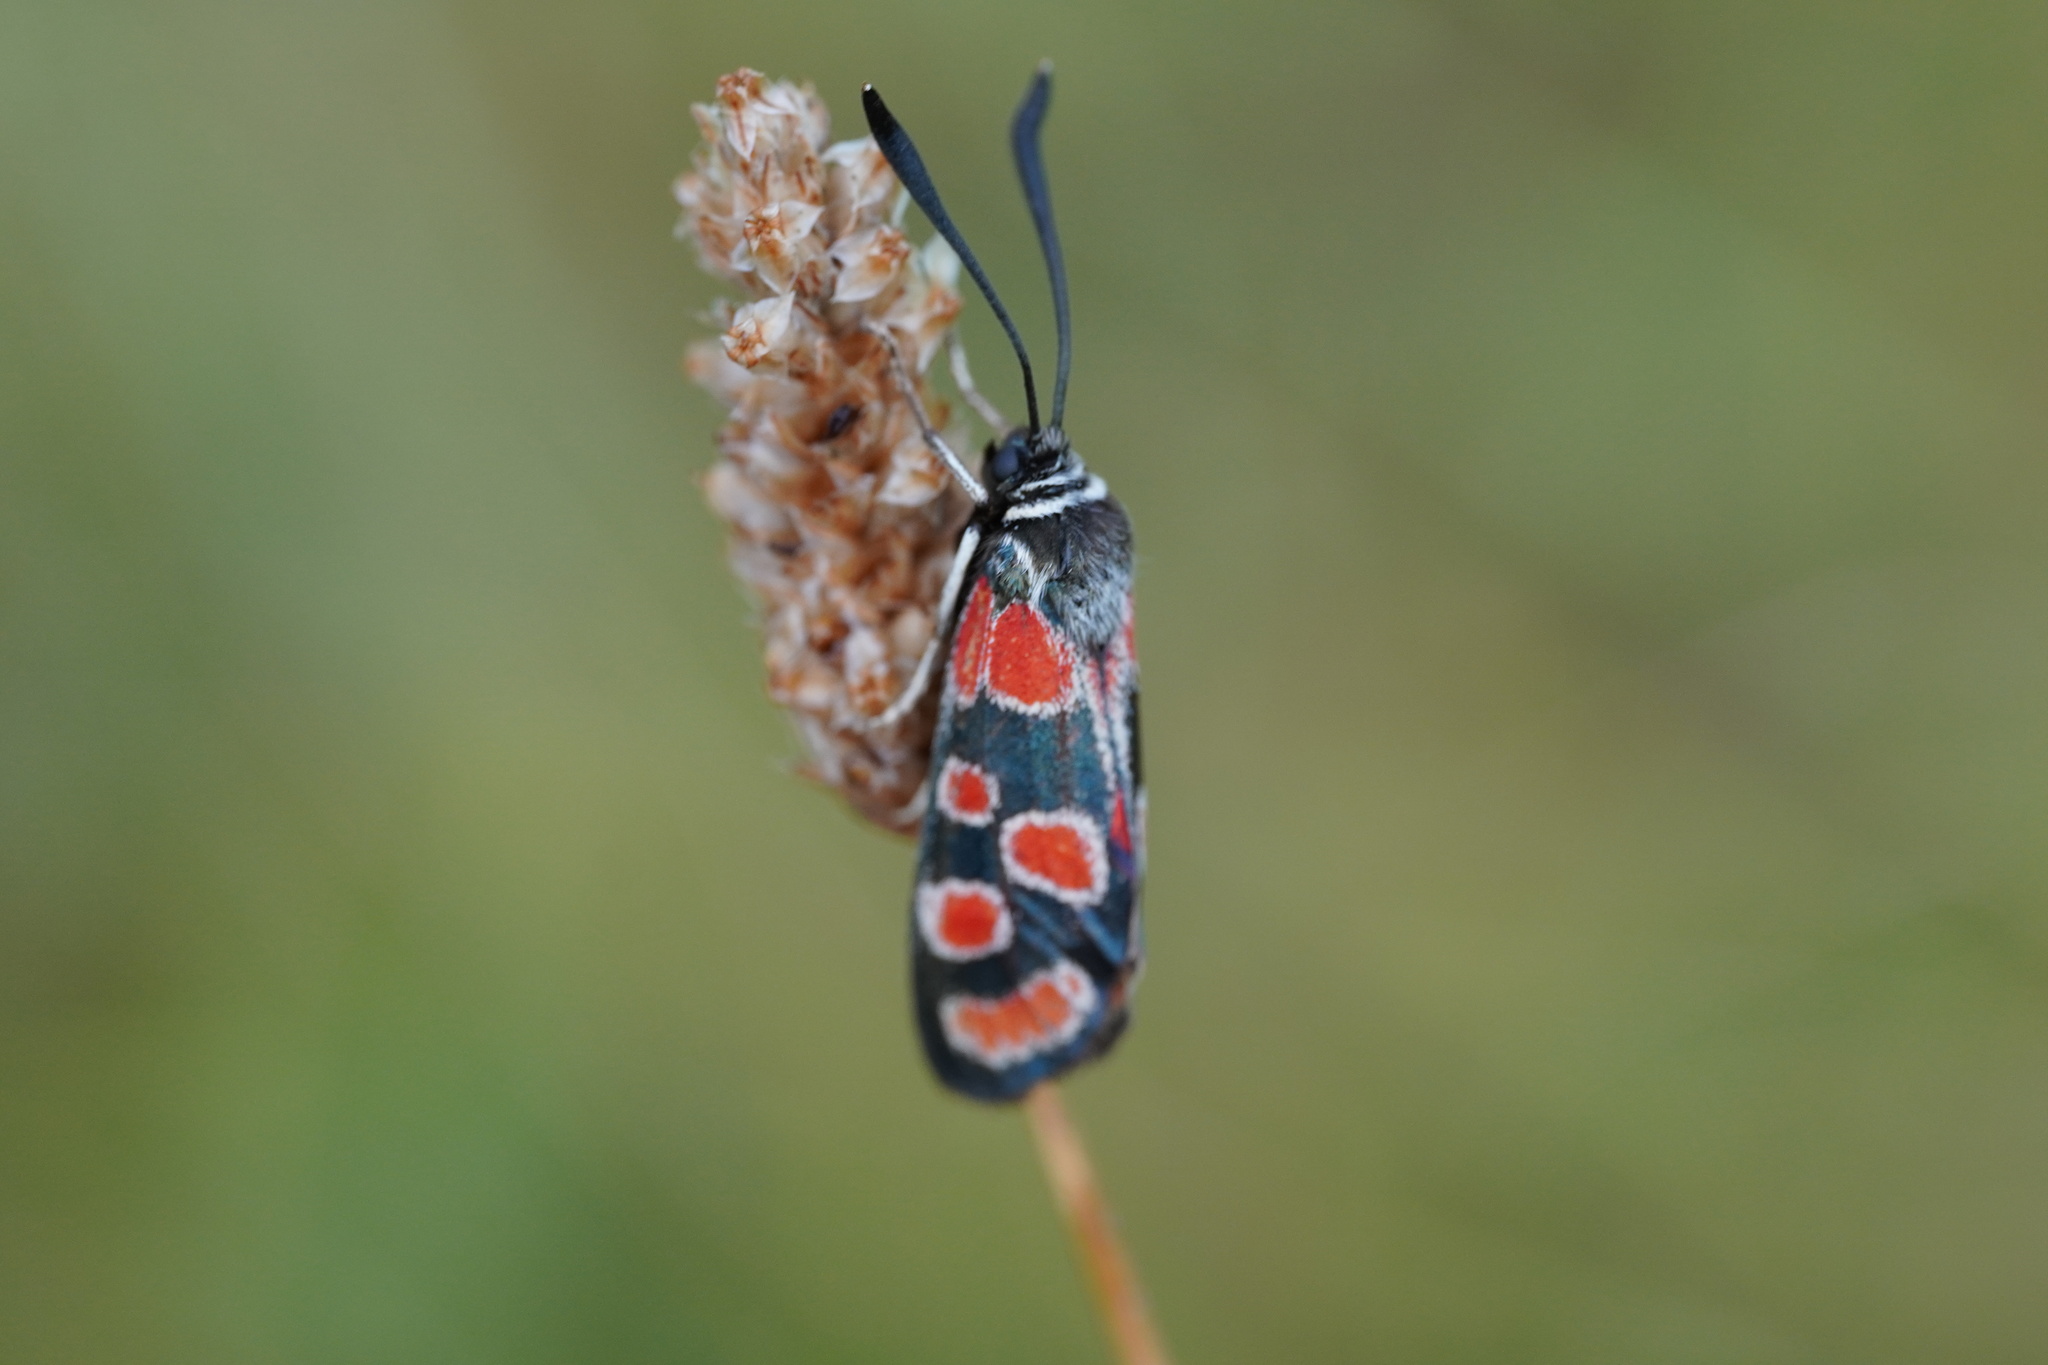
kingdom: Animalia
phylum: Arthropoda
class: Insecta
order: Lepidoptera
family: Zygaenidae
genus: Zygaena
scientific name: Zygaena carniolica
